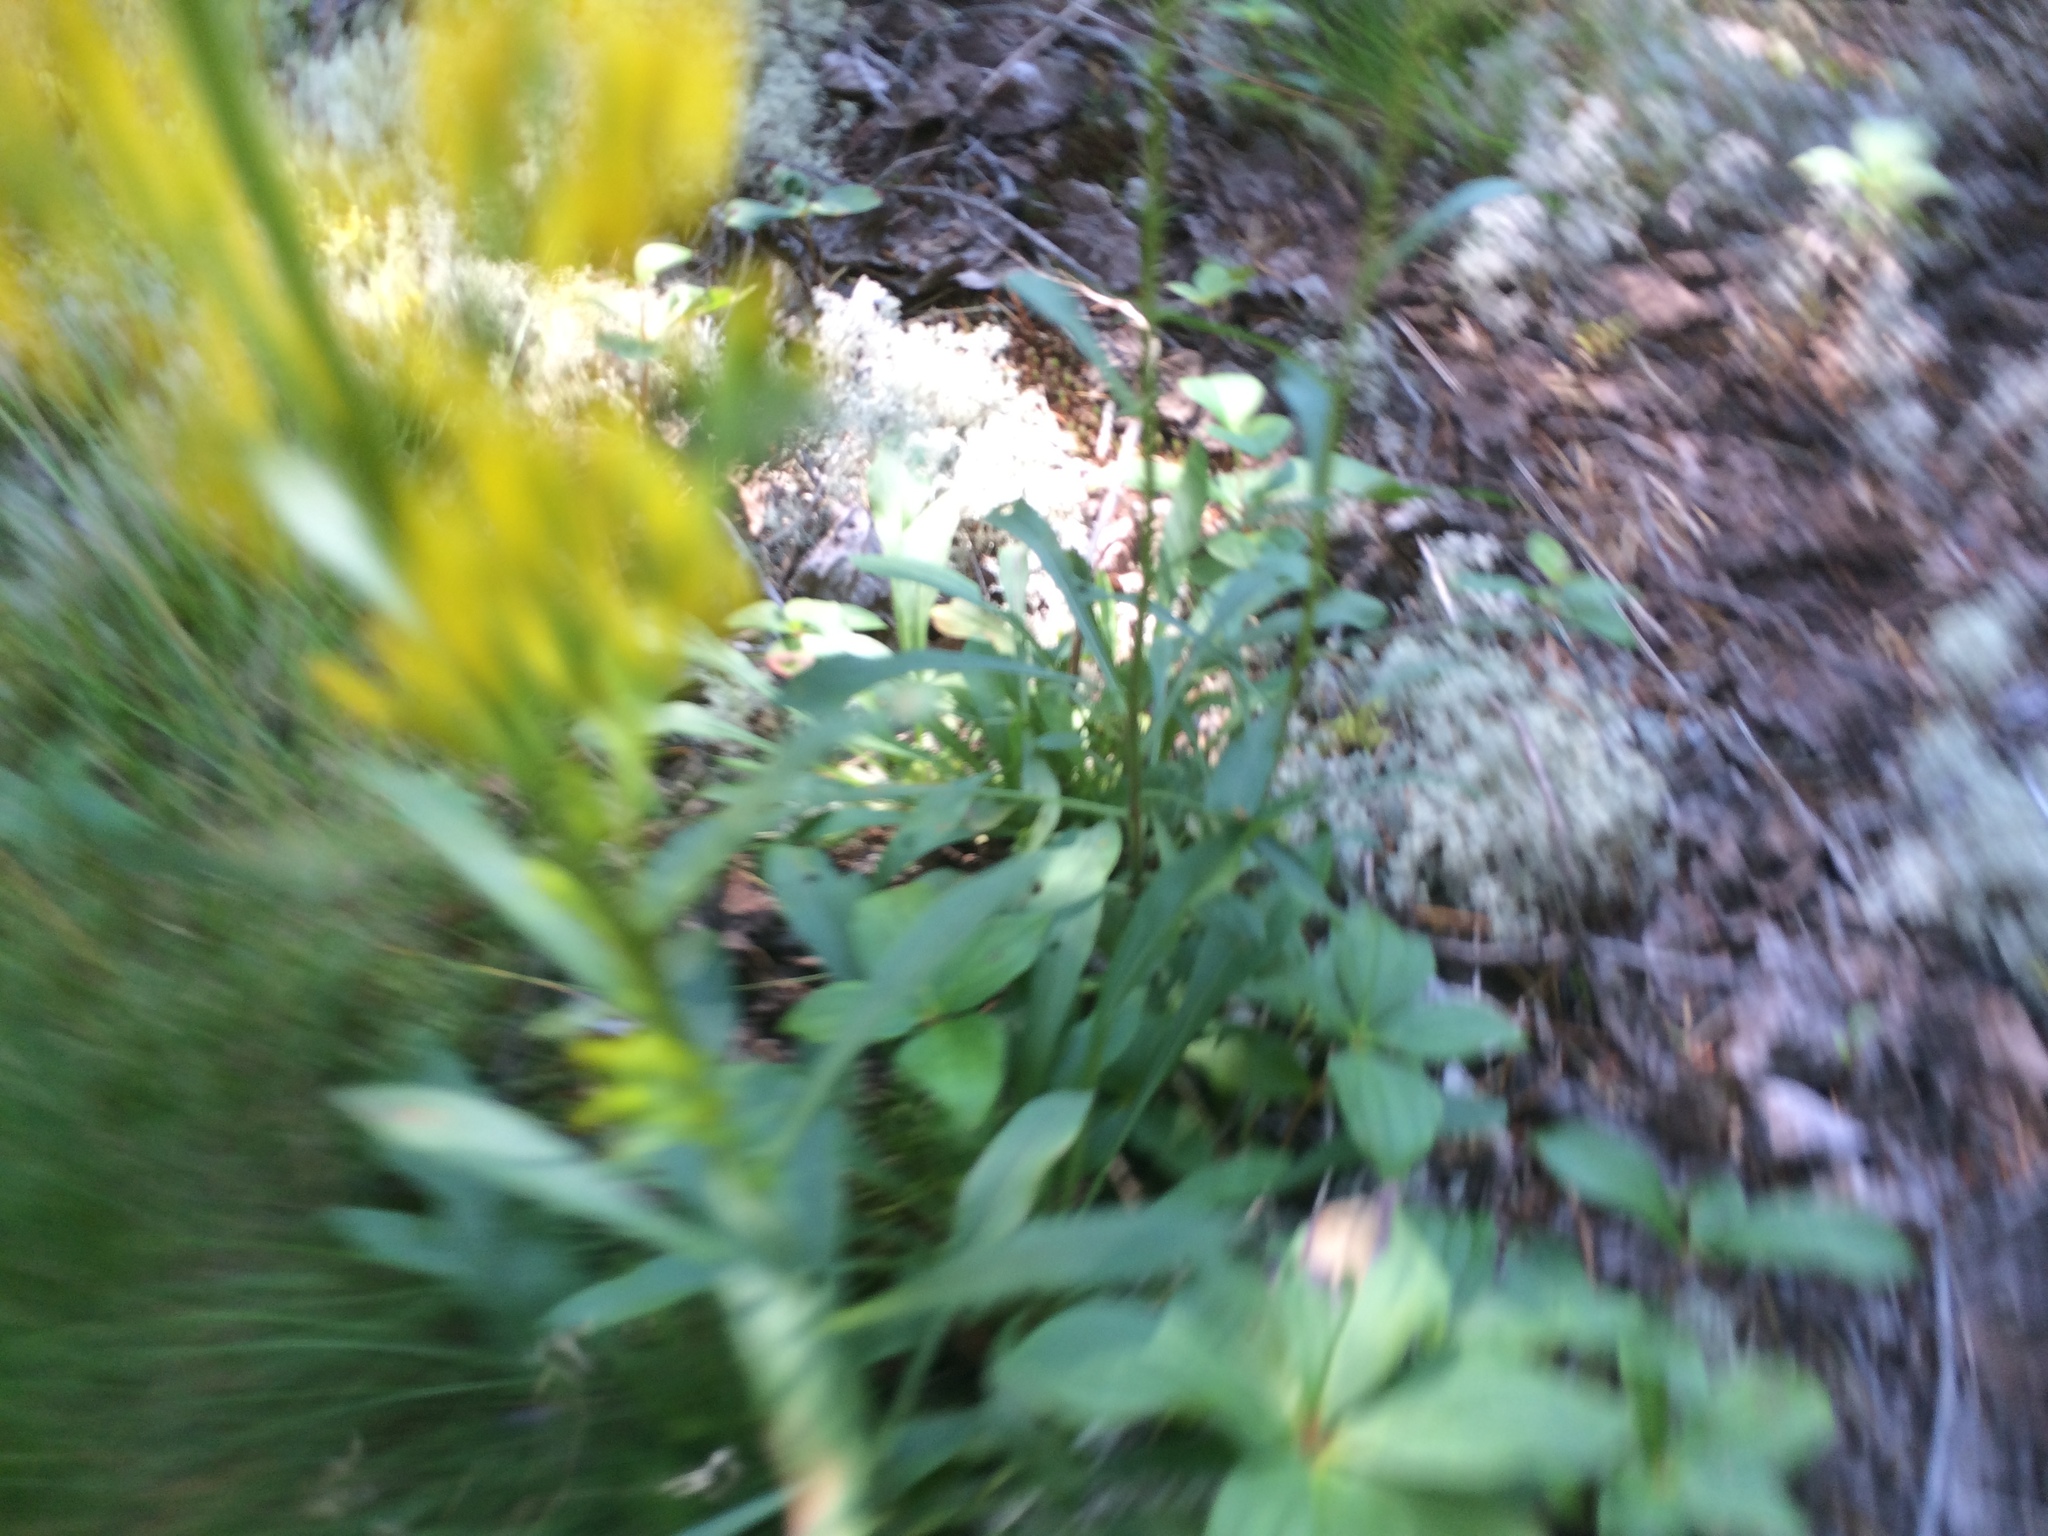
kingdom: Plantae
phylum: Tracheophyta
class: Magnoliopsida
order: Asterales
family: Asteraceae
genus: Solidago
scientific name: Solidago puberula
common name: Downy goldenrod
